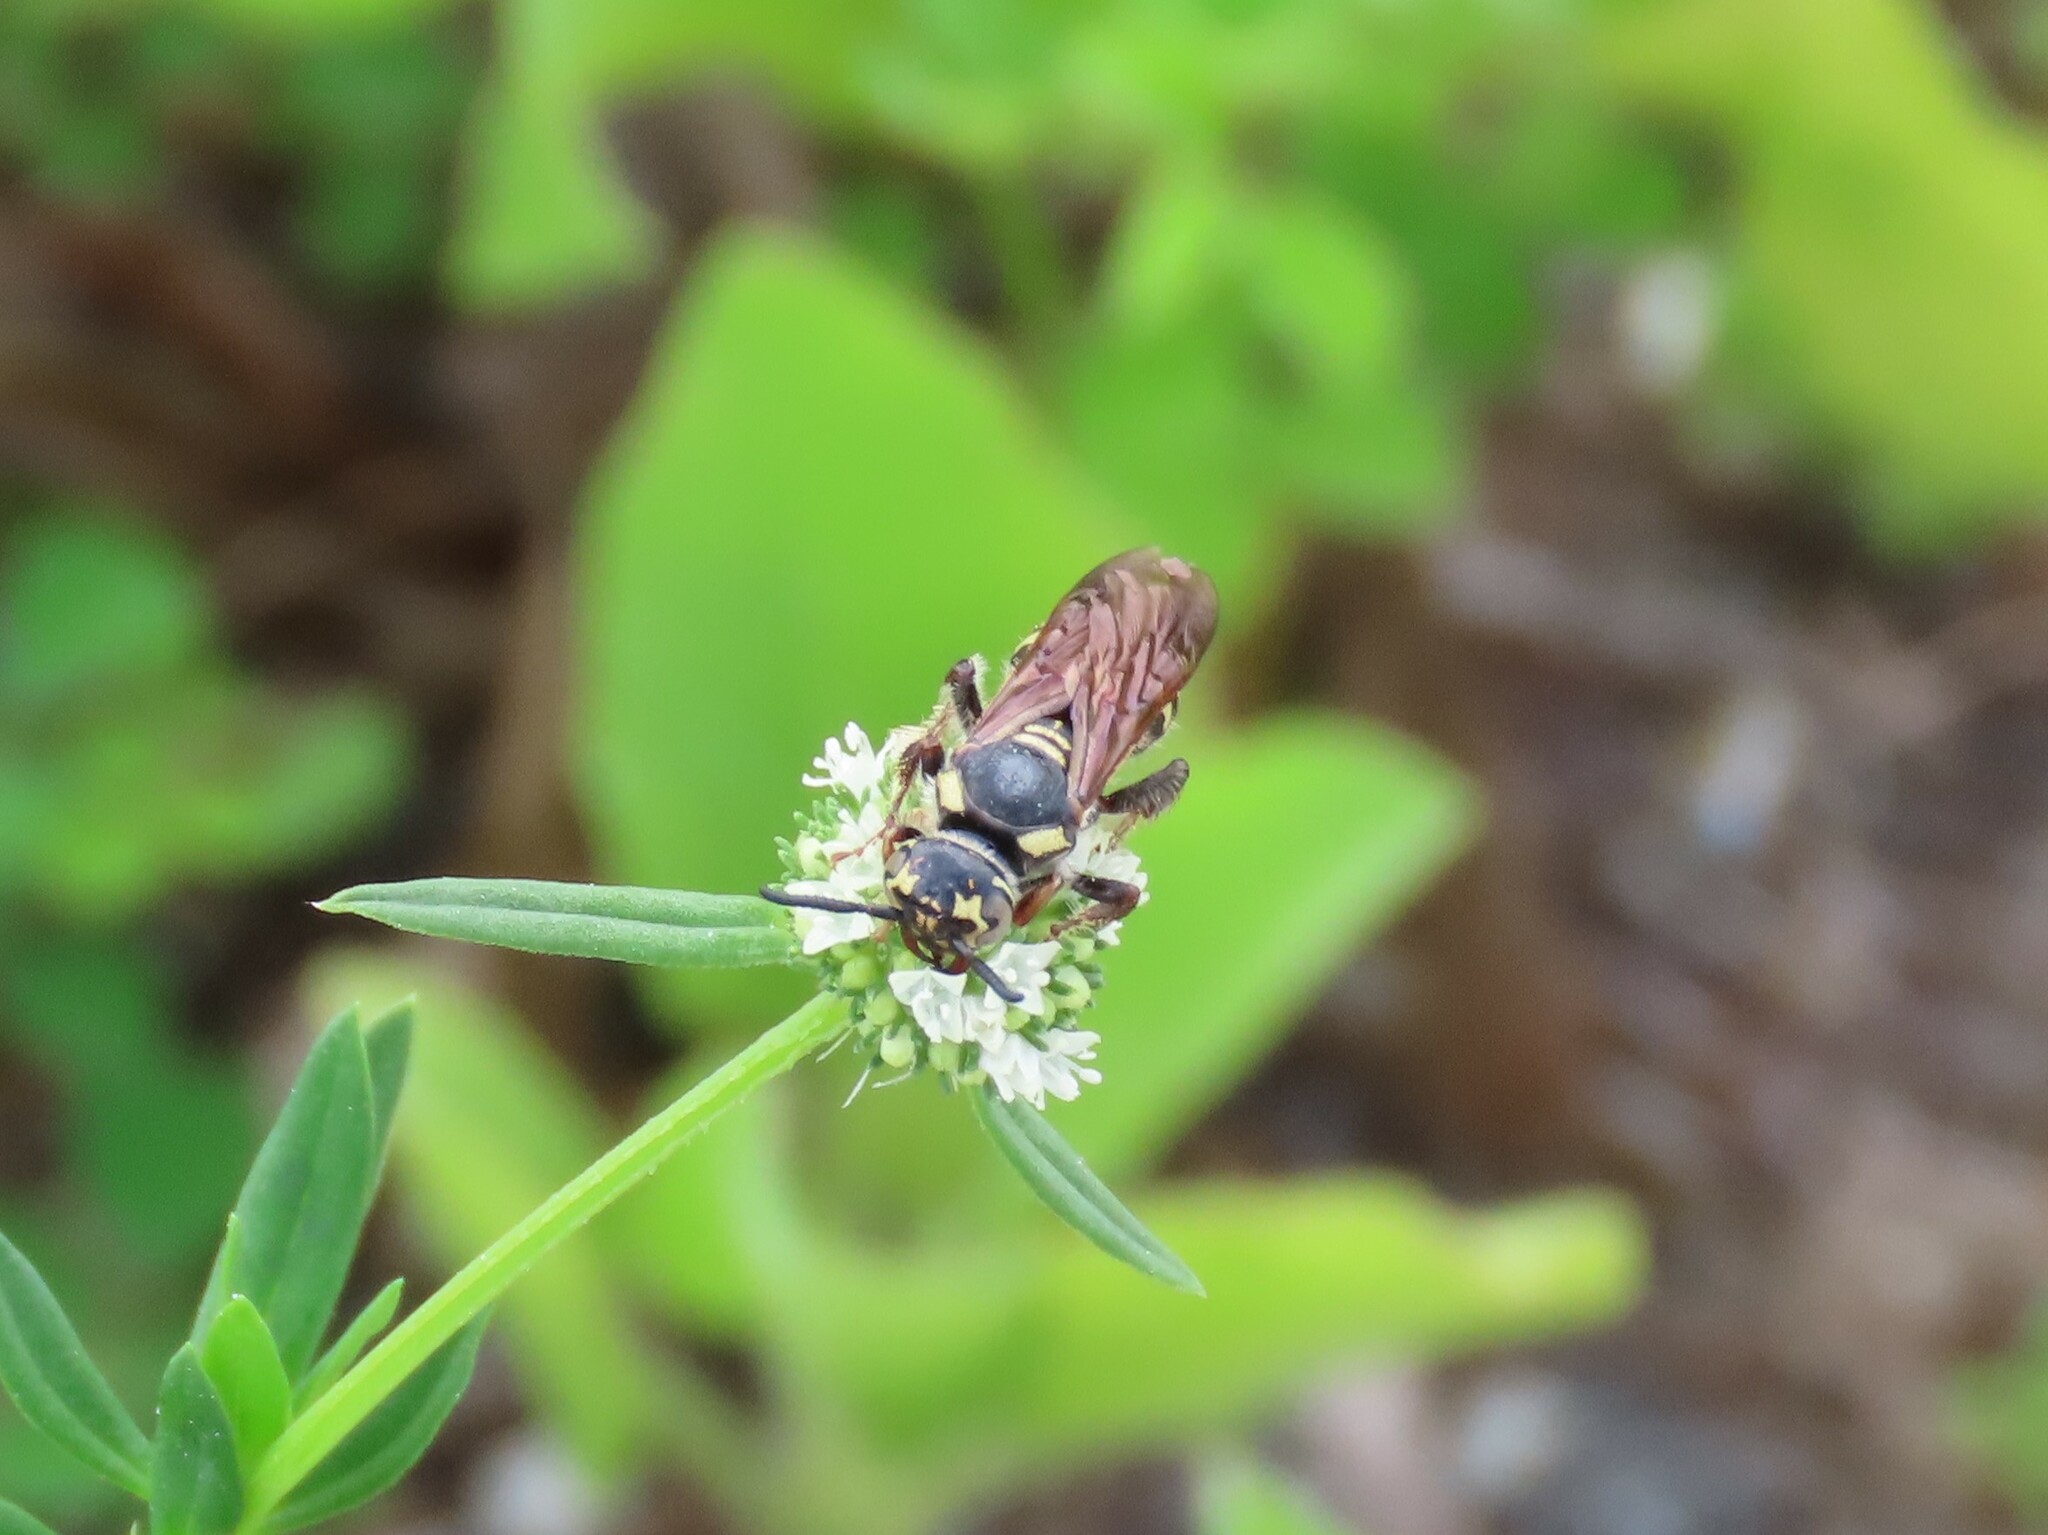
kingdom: Animalia
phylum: Arthropoda
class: Insecta
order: Hymenoptera
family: Scoliidae
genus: Colpa
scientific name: Colpa octomaculata
